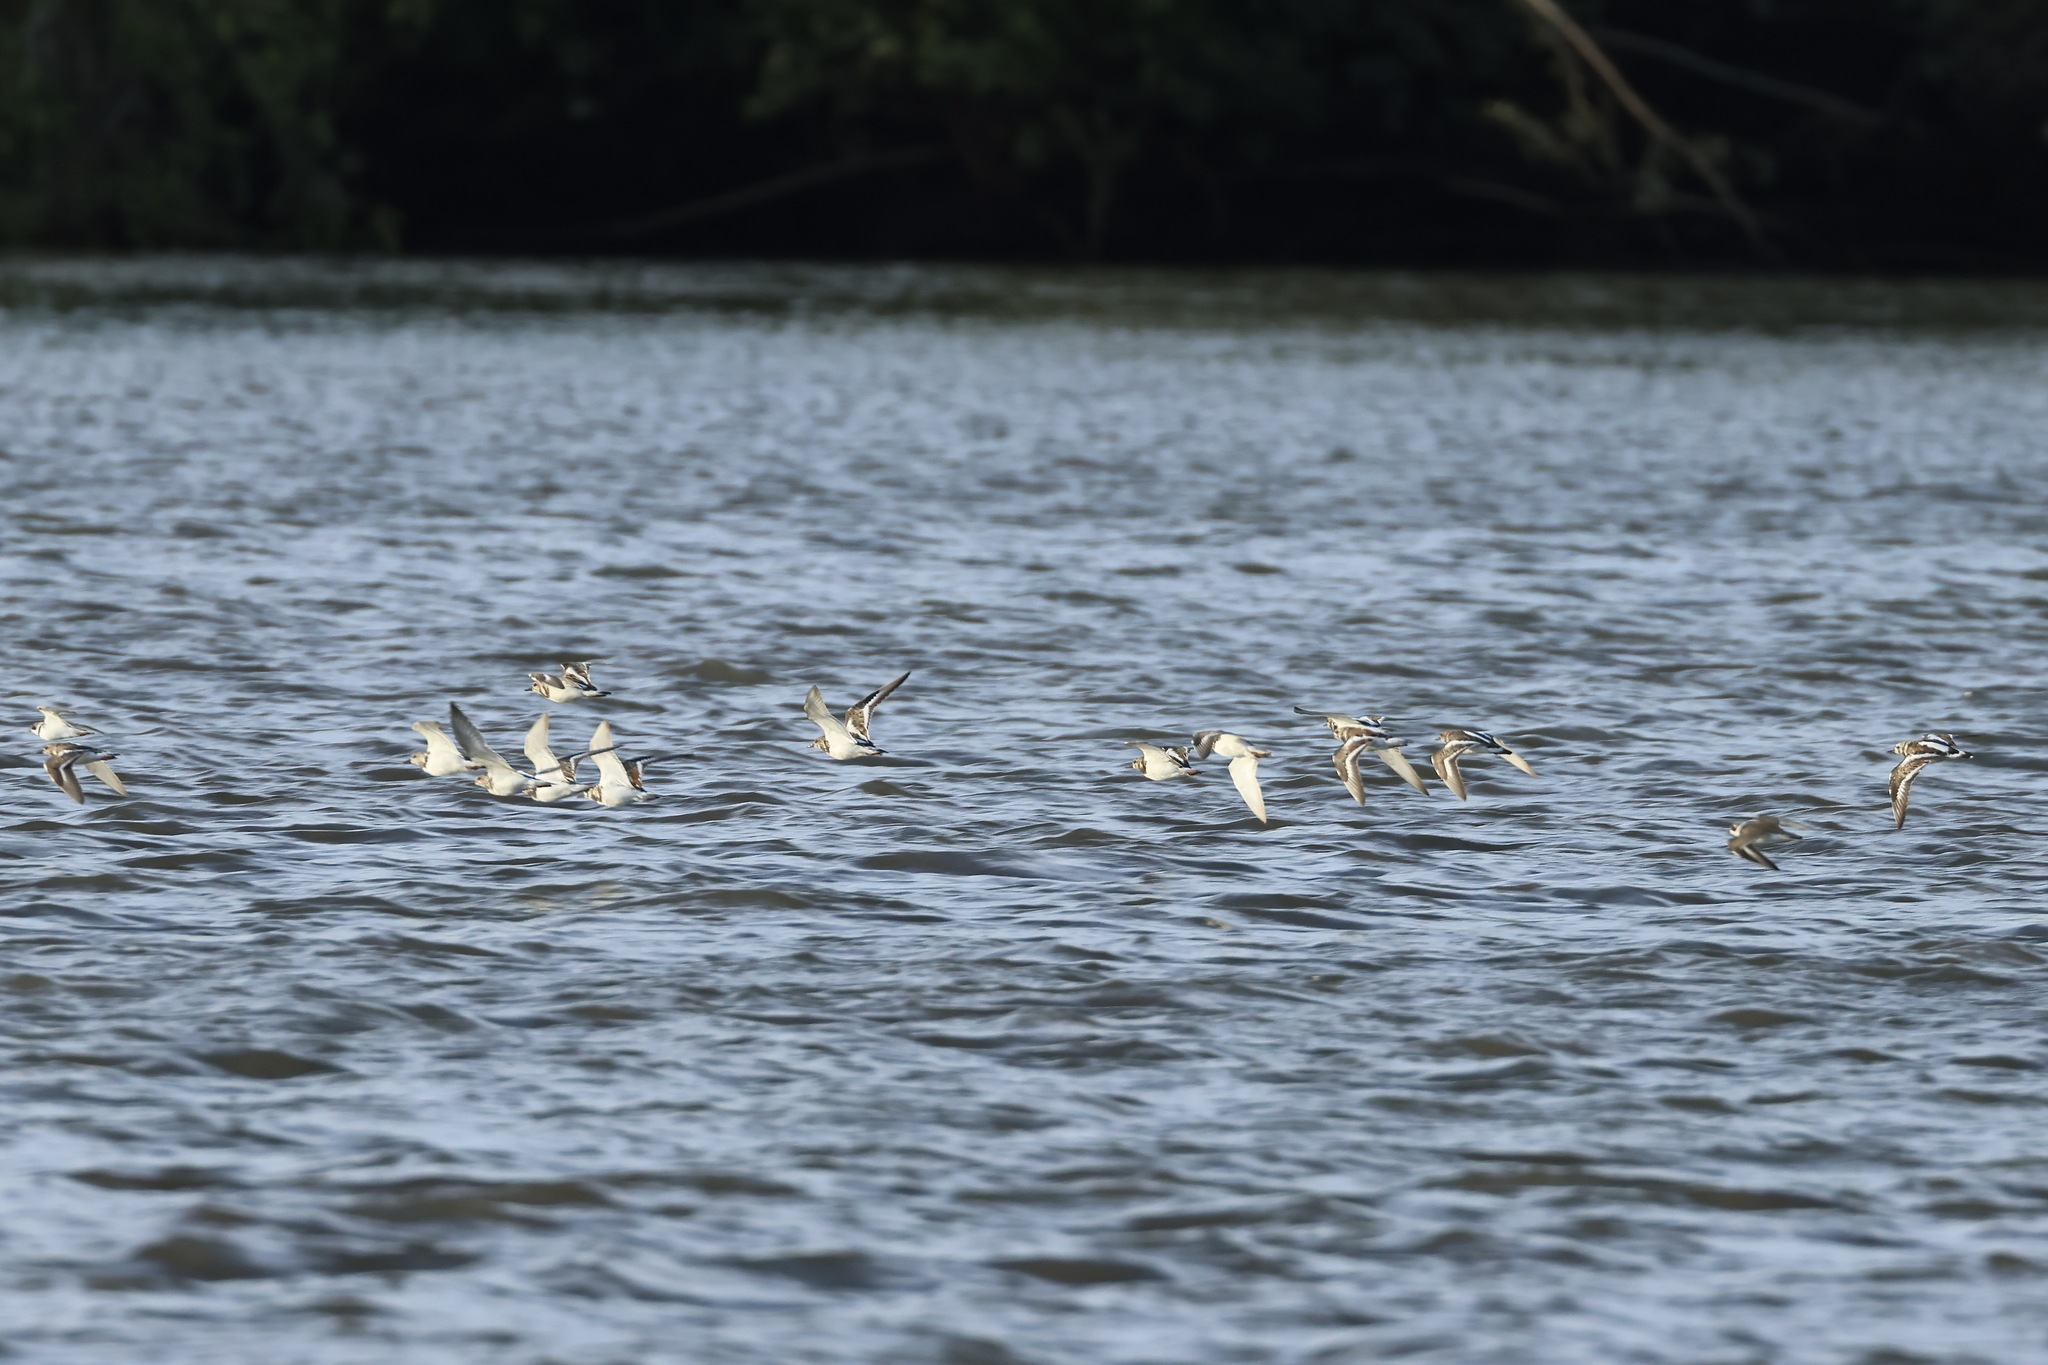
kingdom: Animalia
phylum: Chordata
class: Aves
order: Charadriiformes
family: Scolopacidae
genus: Arenaria
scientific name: Arenaria interpres
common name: Ruddy turnstone
